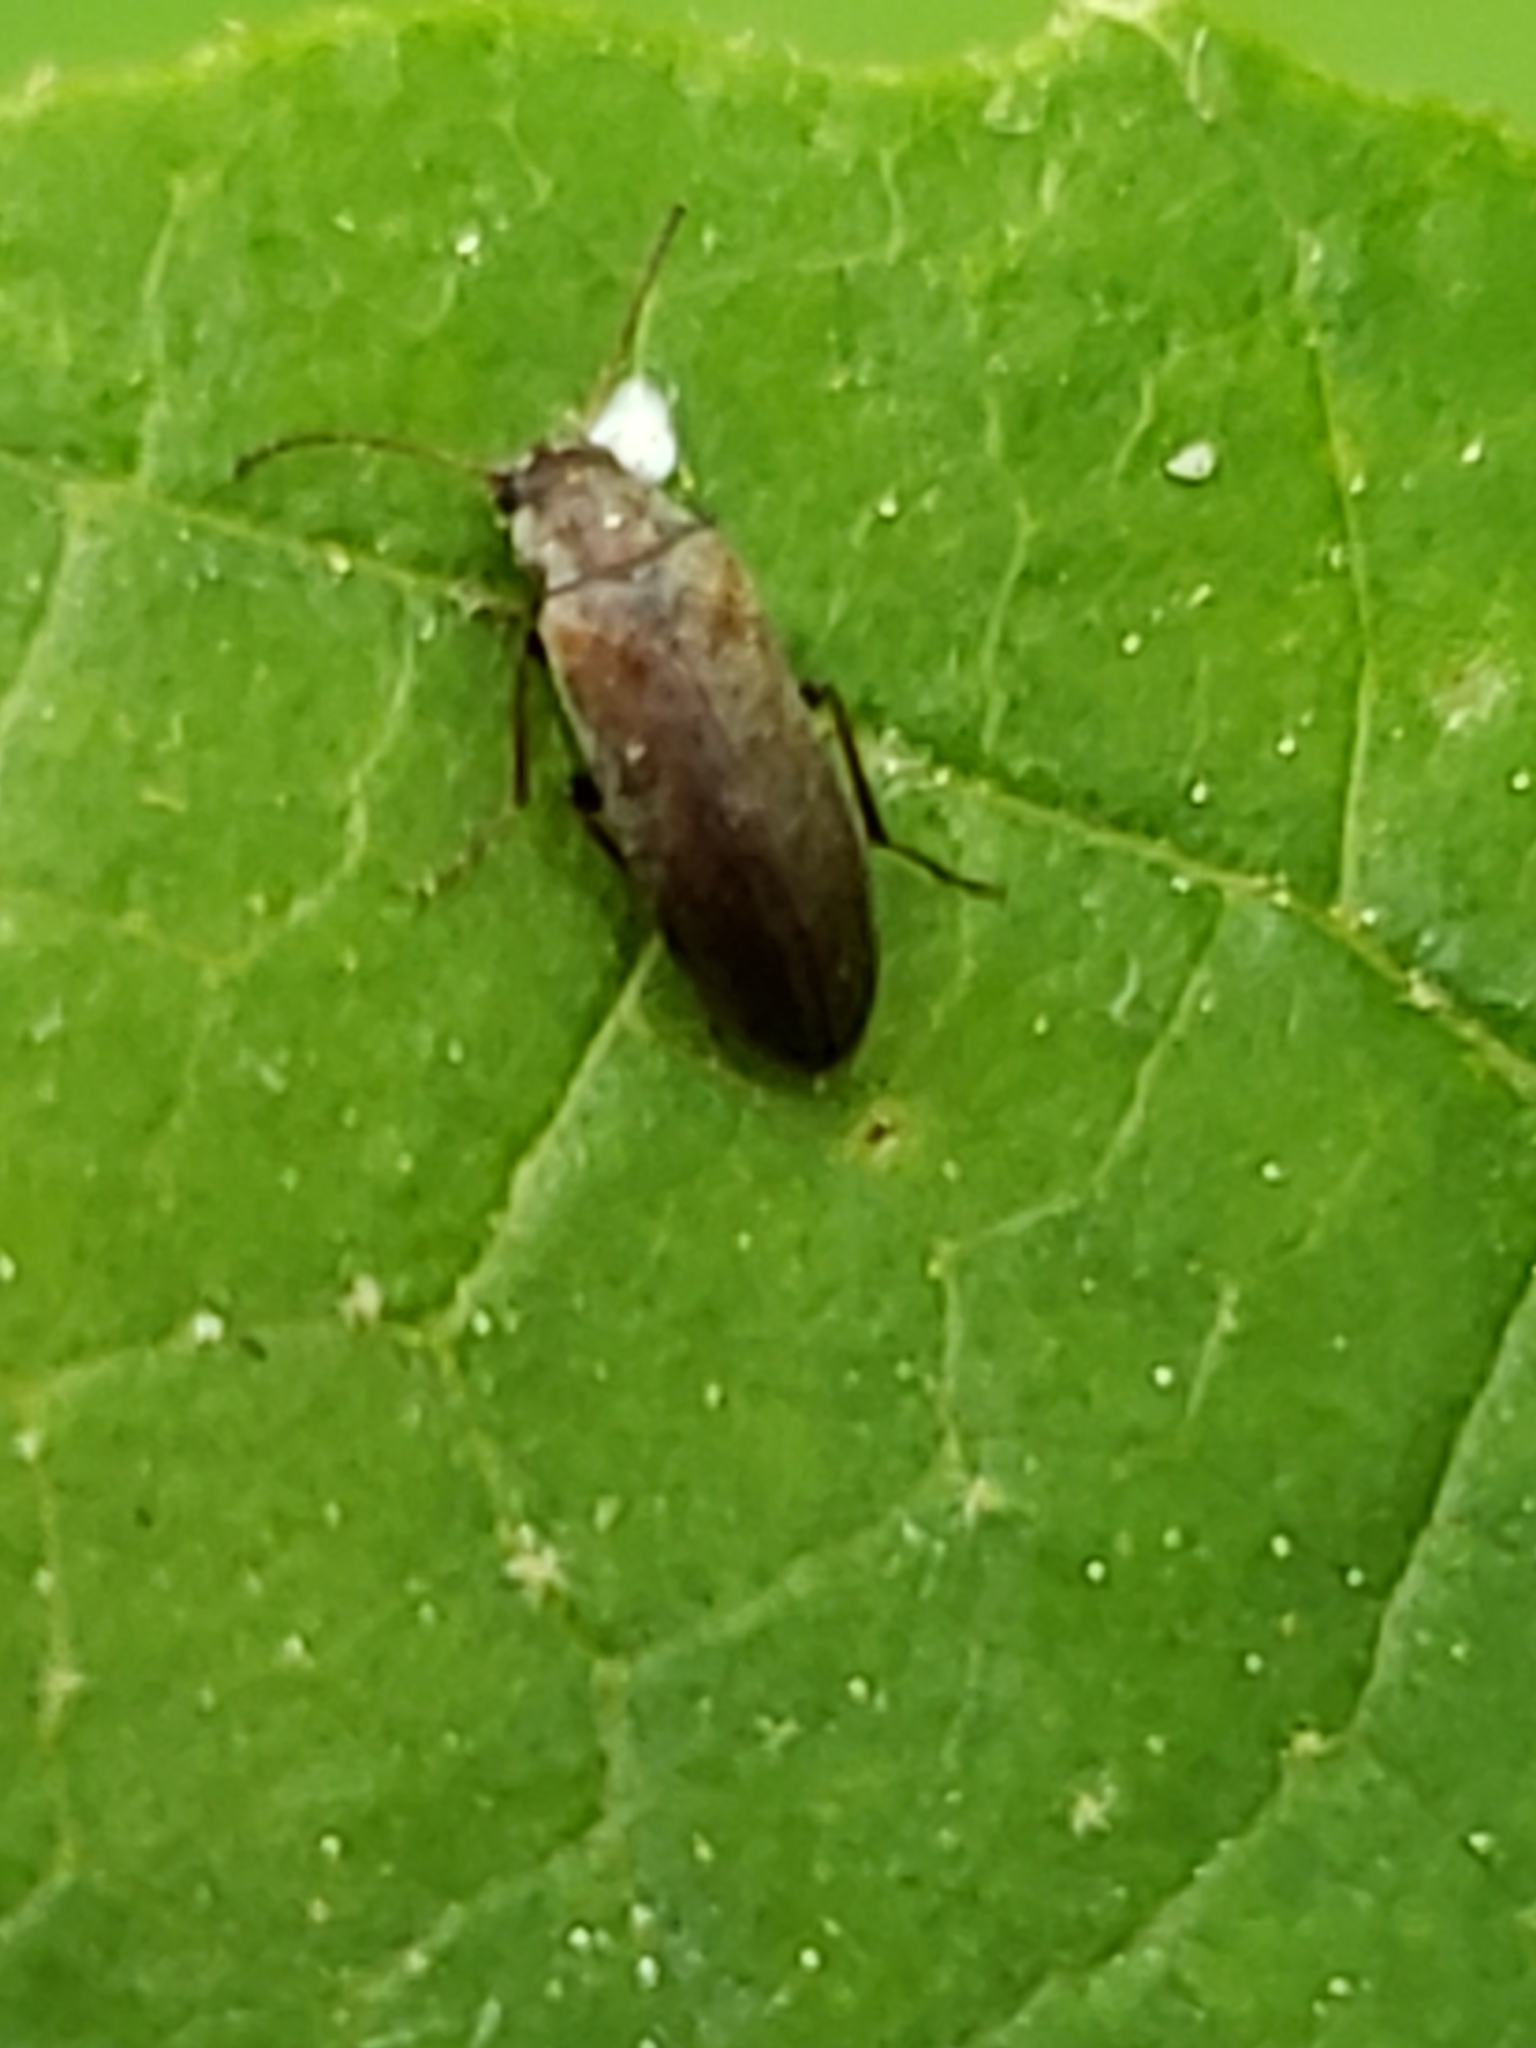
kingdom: Animalia
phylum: Arthropoda
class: Insecta
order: Coleoptera
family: Melandryidae
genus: Microtonus
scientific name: Microtonus sericans
